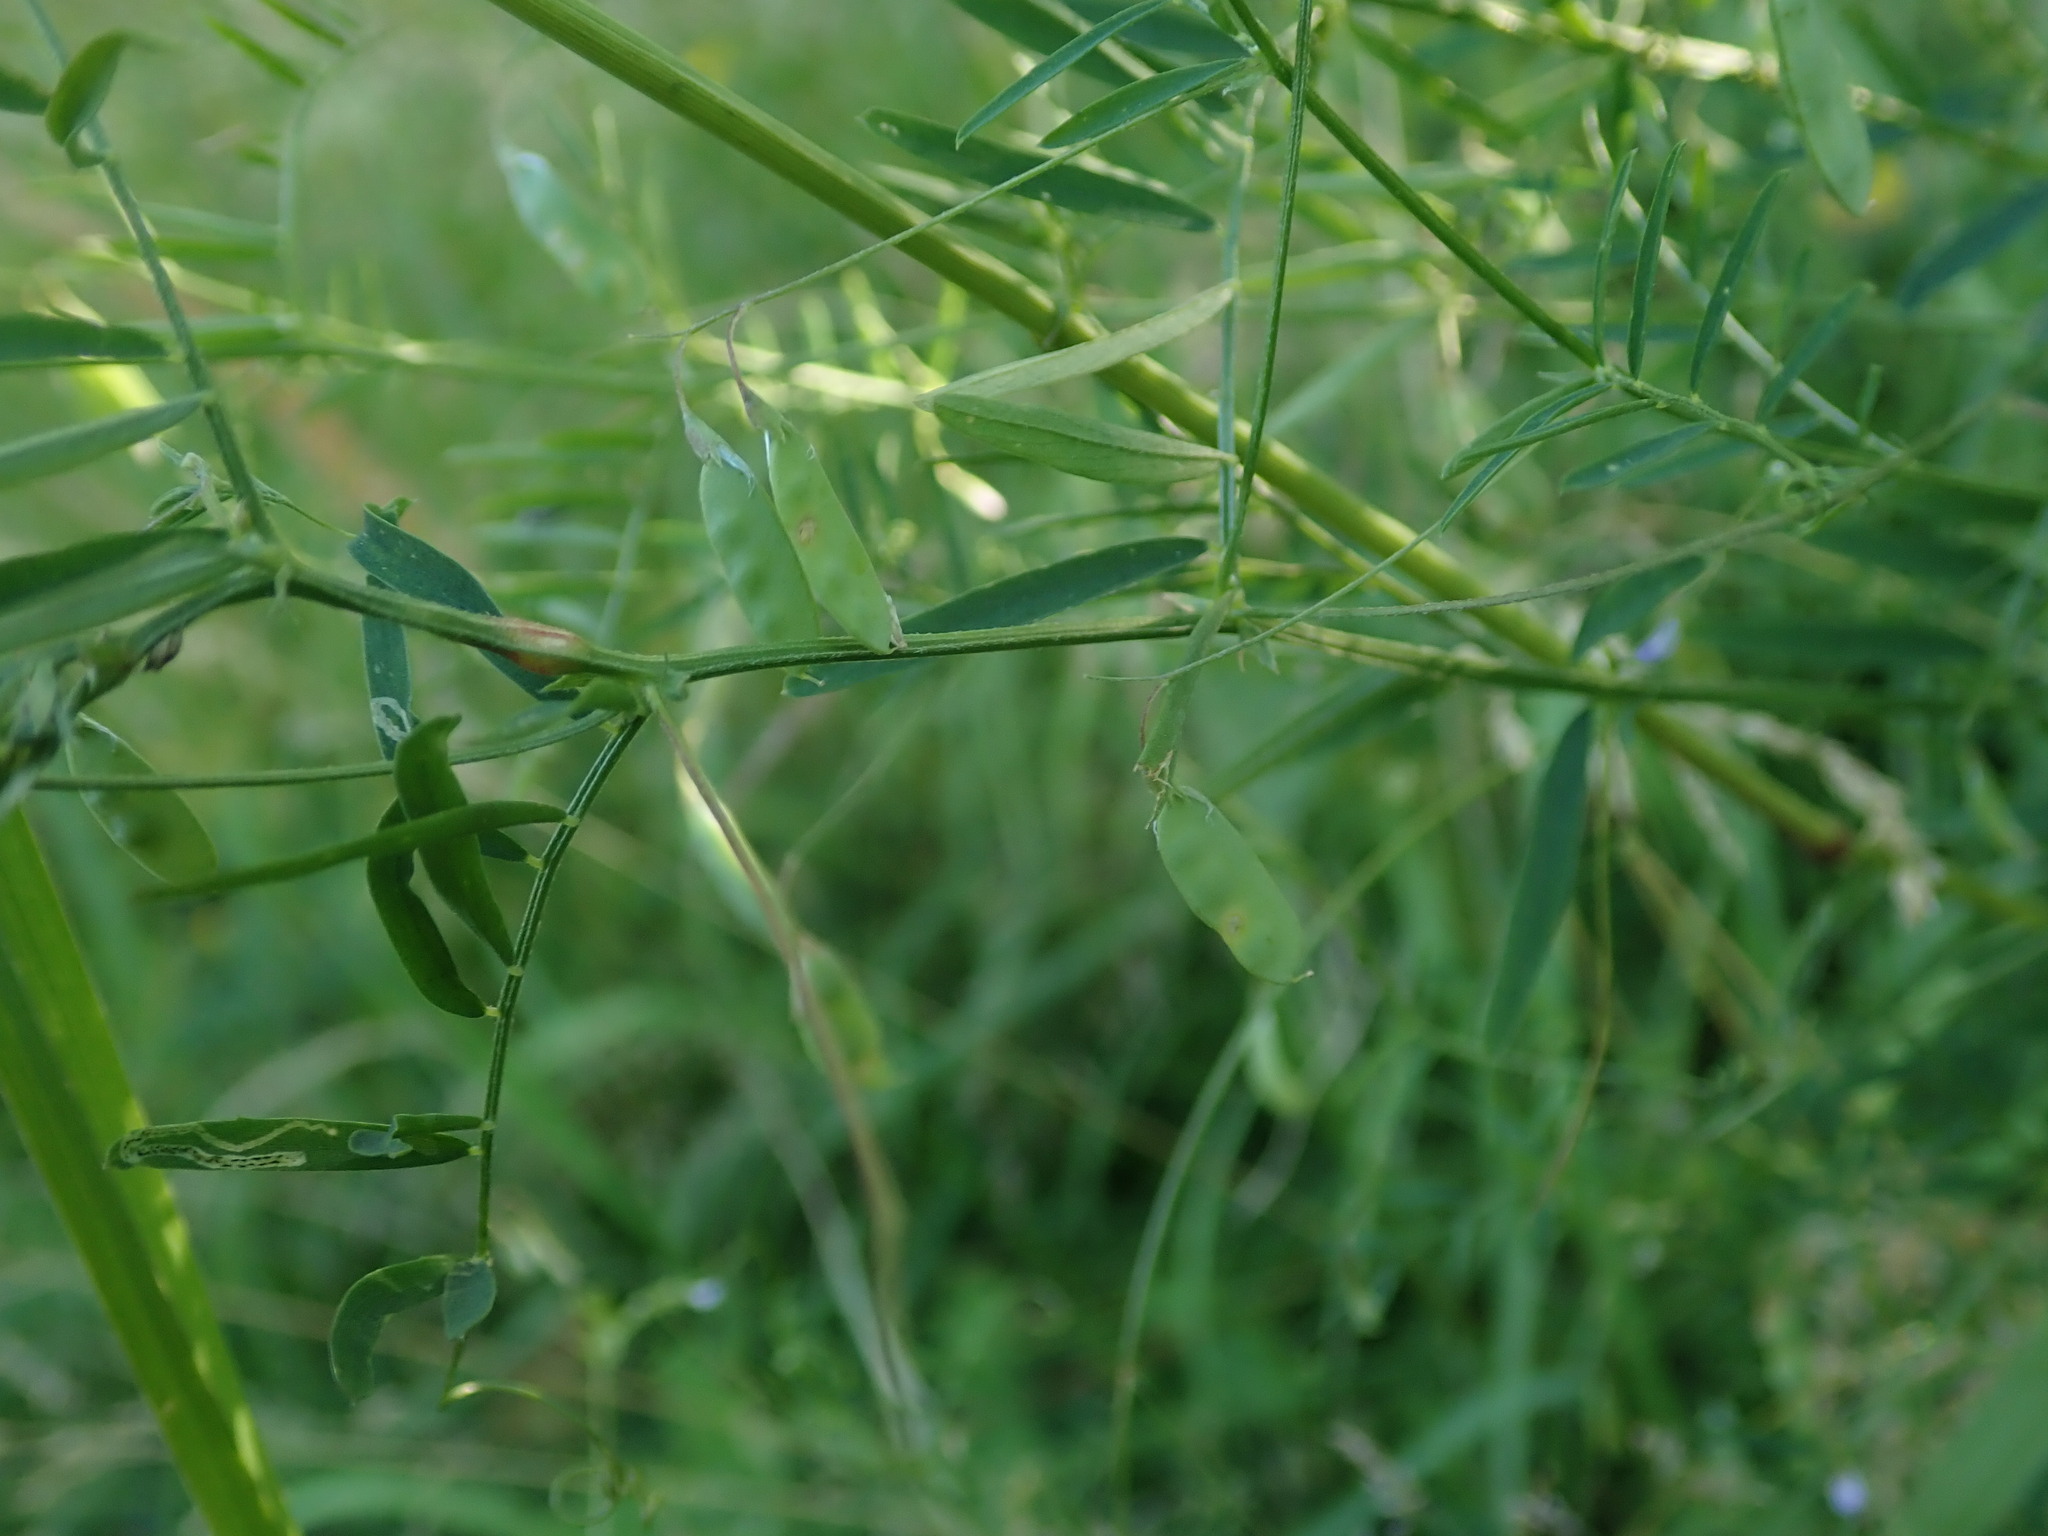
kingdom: Plantae
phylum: Tracheophyta
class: Magnoliopsida
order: Fabales
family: Fabaceae
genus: Vicia
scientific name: Vicia tetrasperma
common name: Smooth tare
